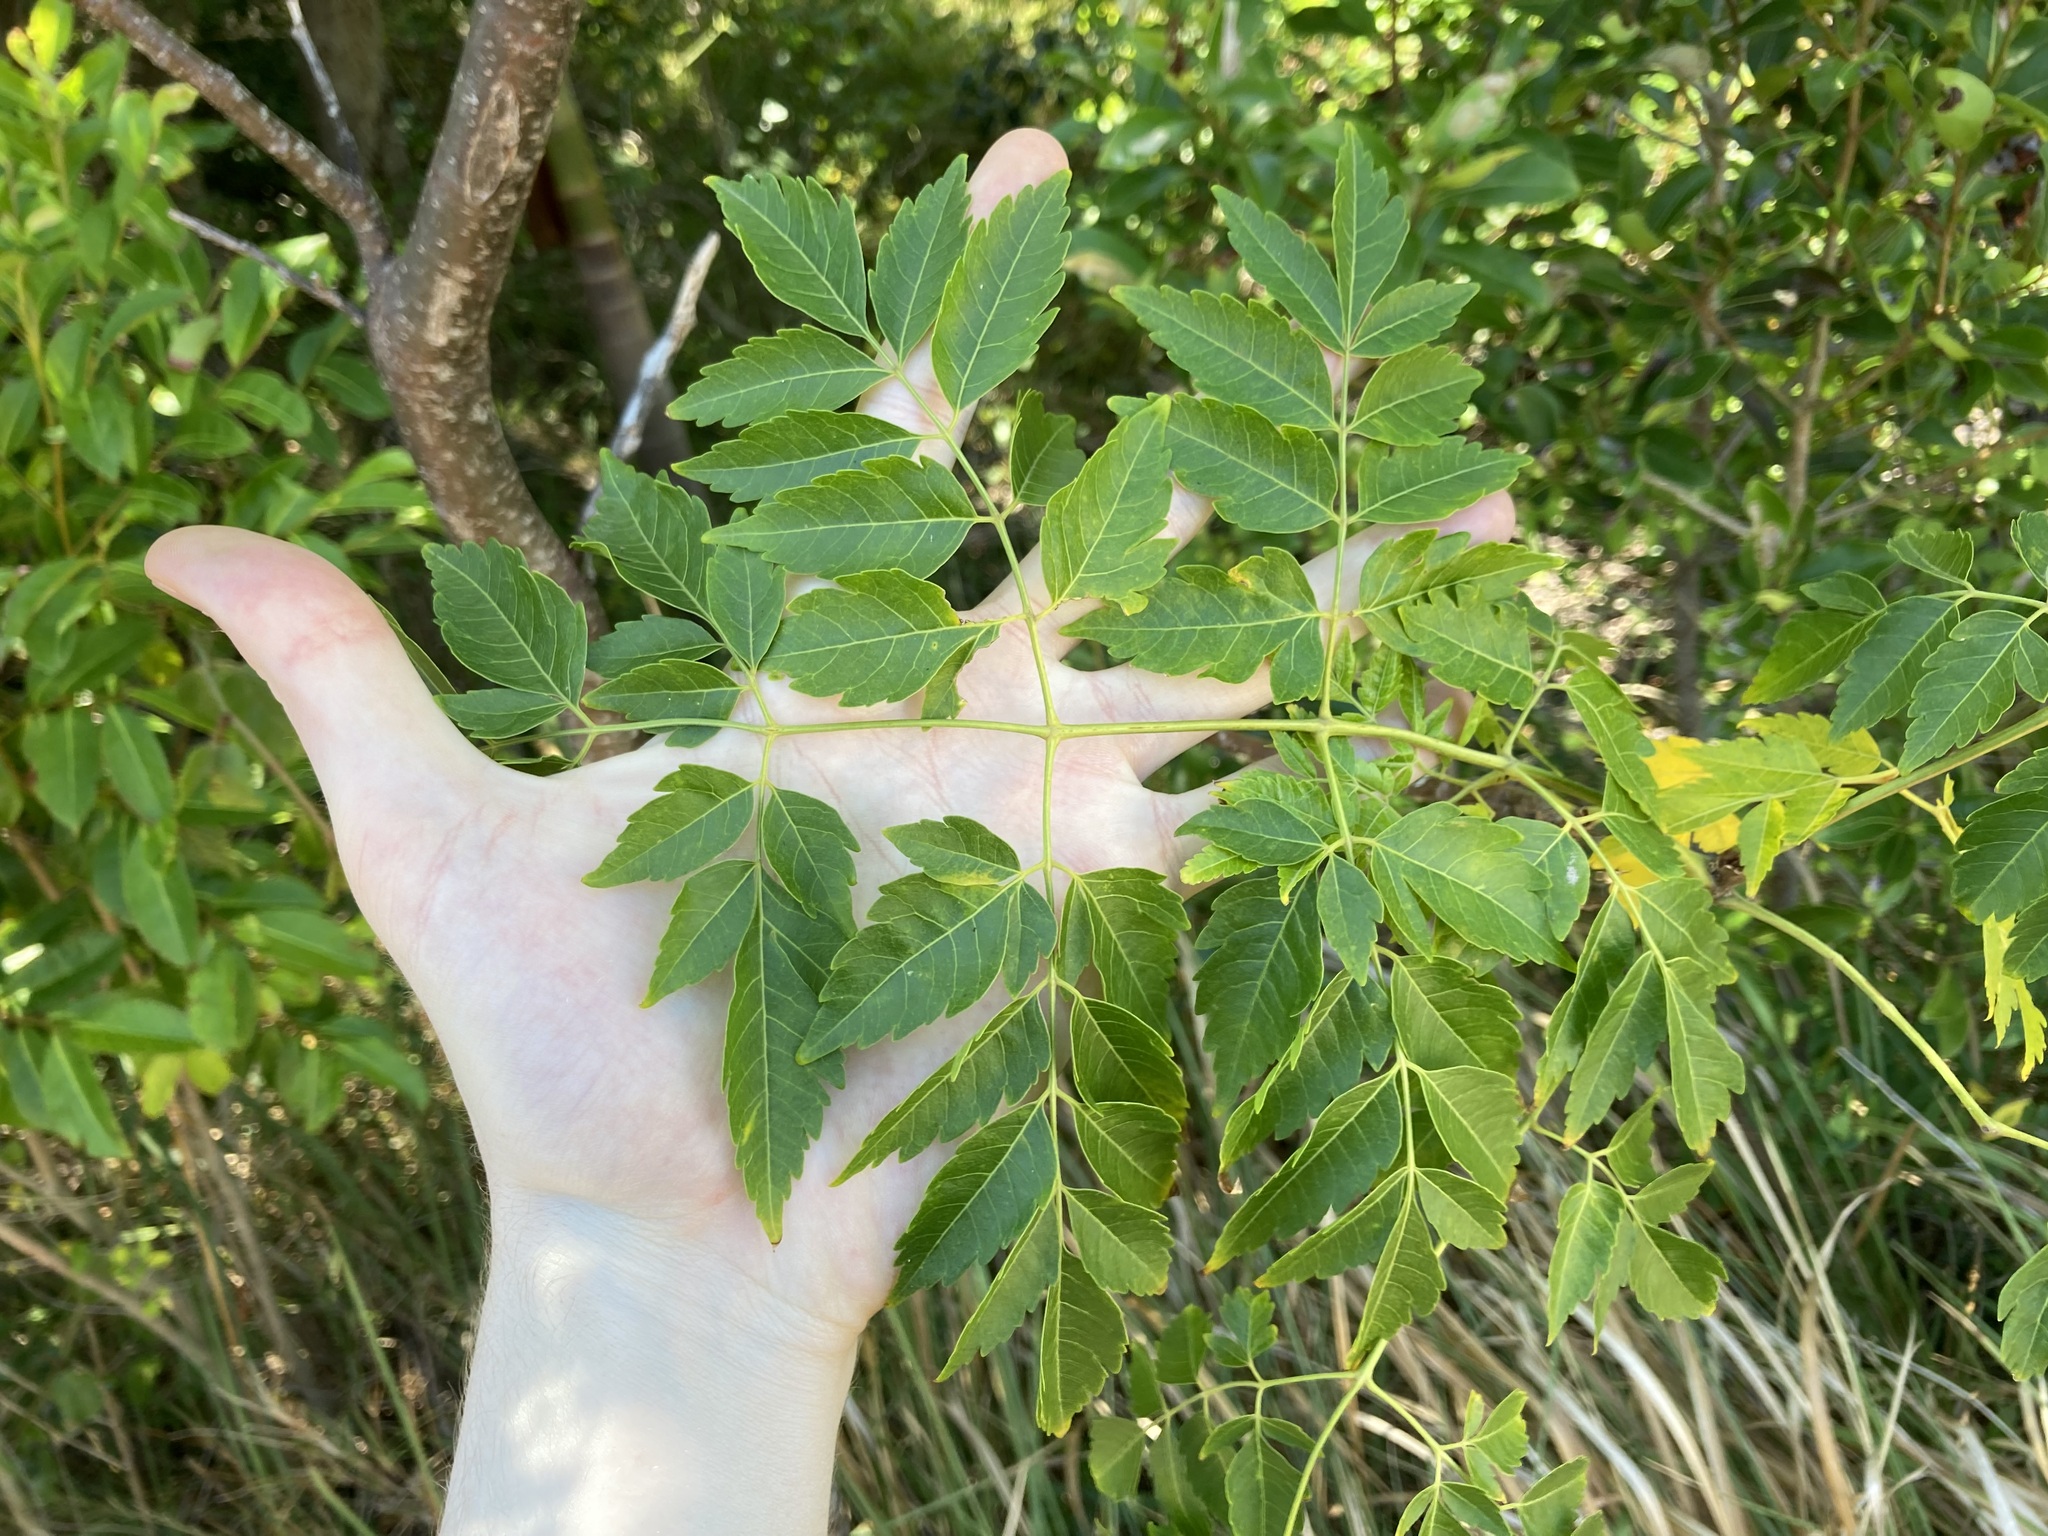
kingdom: Plantae
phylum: Tracheophyta
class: Magnoliopsida
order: Sapindales
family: Meliaceae
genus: Melia
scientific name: Melia azedarach
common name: Chinaberrytree
